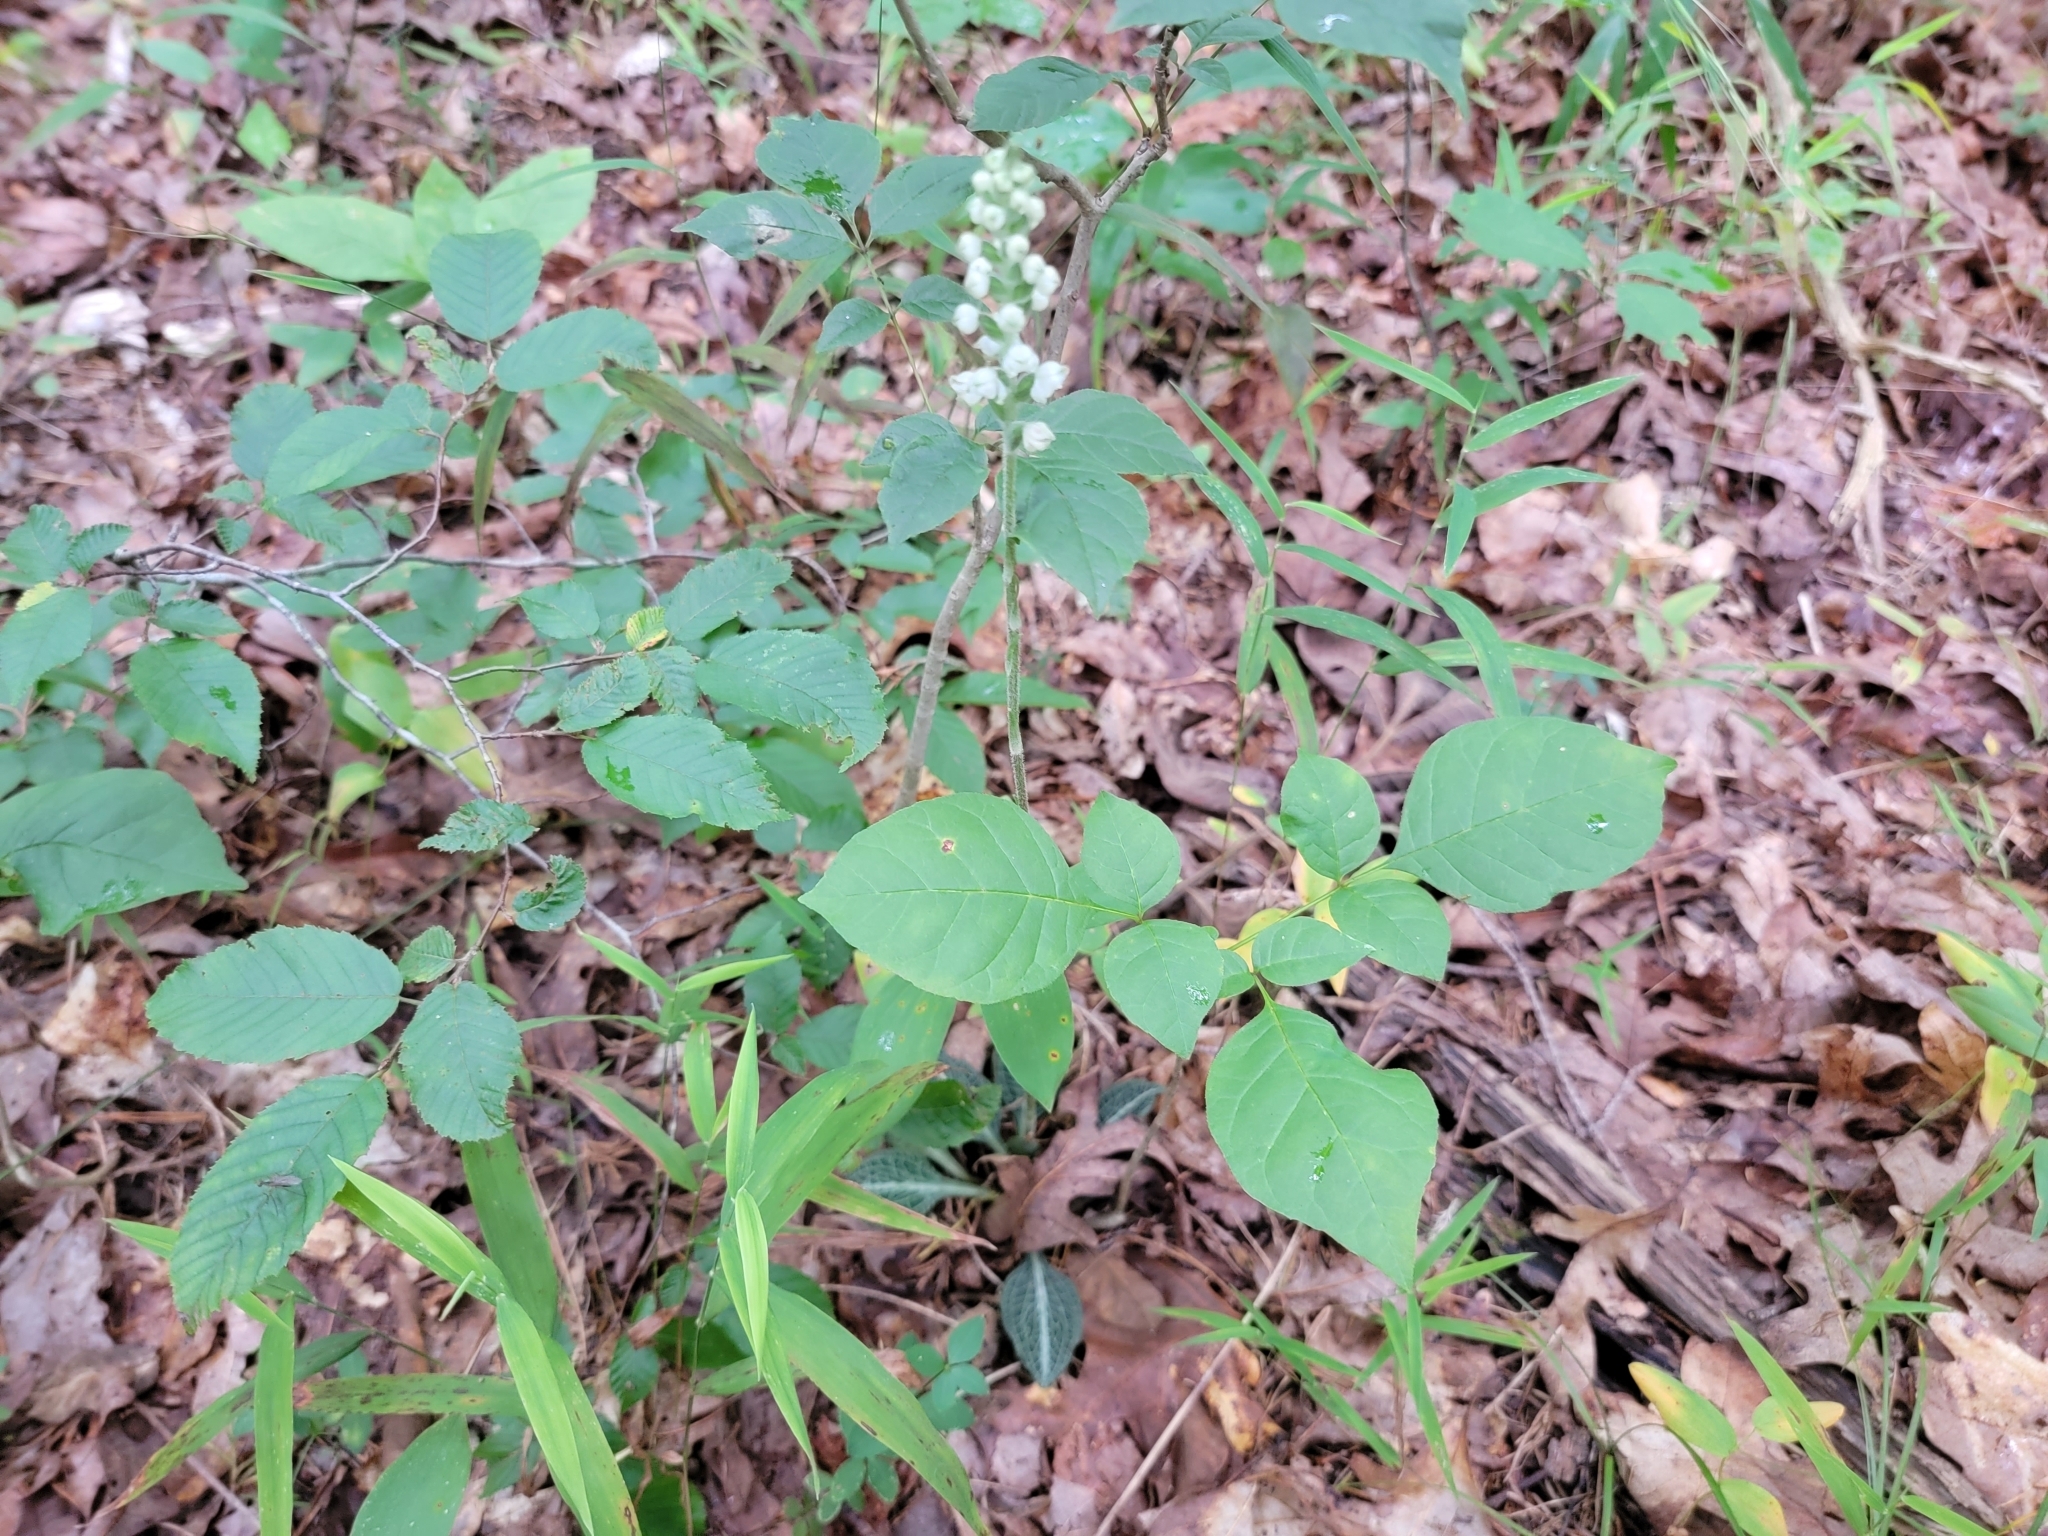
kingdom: Plantae
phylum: Tracheophyta
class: Liliopsida
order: Asparagales
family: Orchidaceae
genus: Goodyera
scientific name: Goodyera pubescens
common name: Downy rattlesnake-plantain
